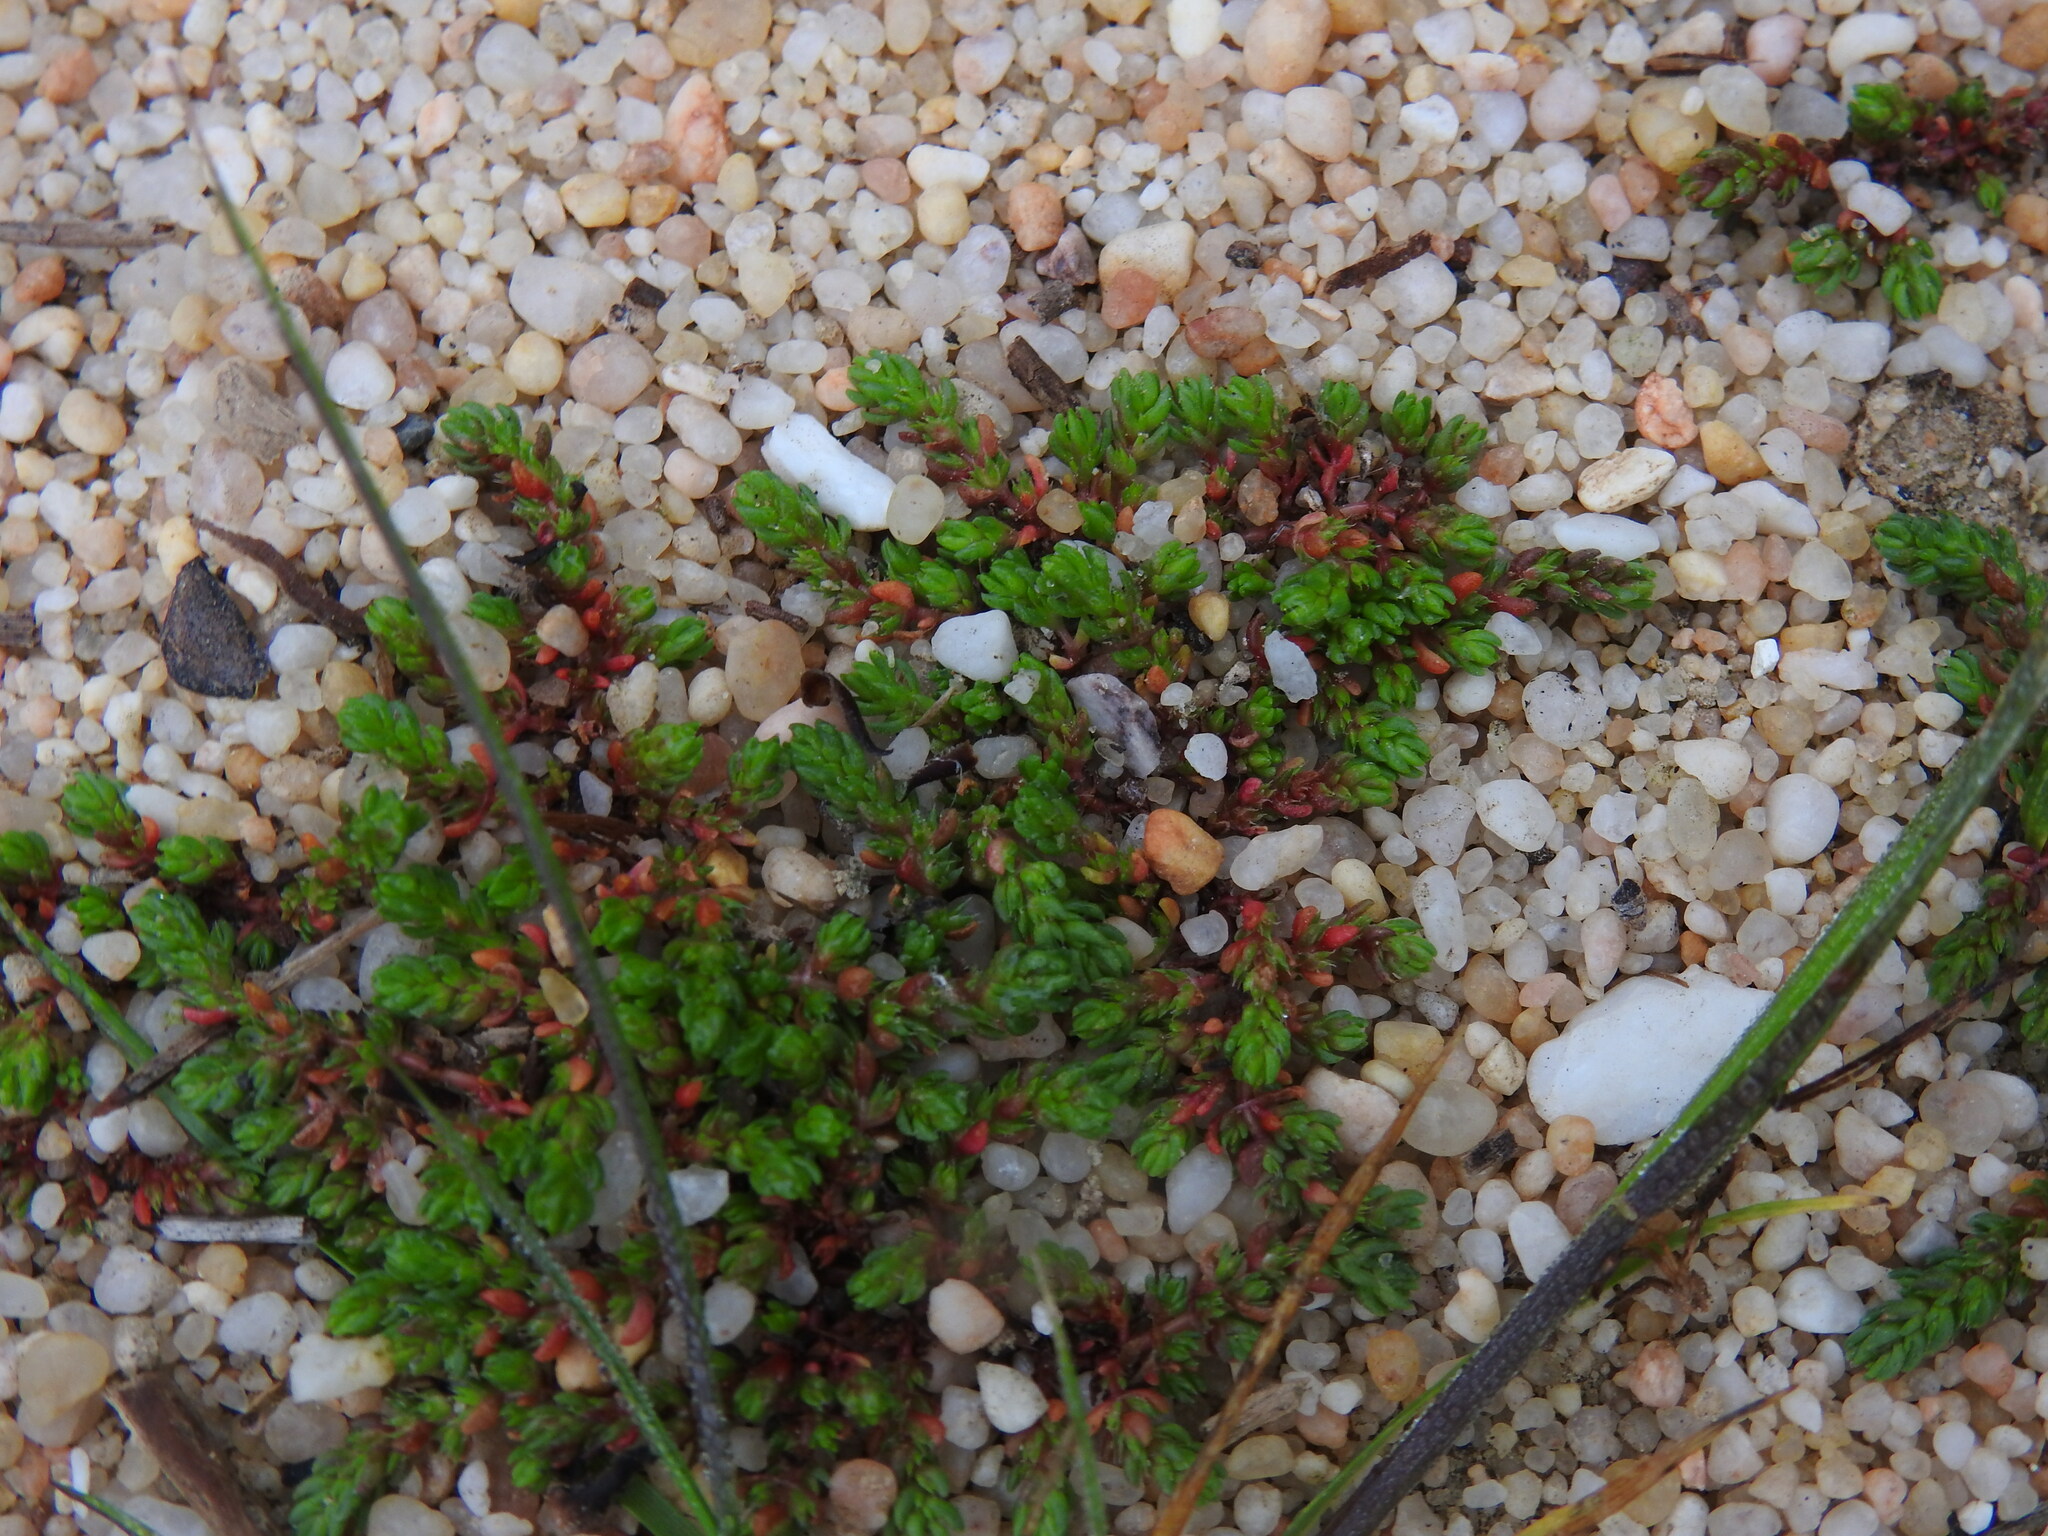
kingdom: Plantae
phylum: Tracheophyta
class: Magnoliopsida
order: Saxifragales
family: Crassulaceae
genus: Crassula
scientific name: Crassula tillaea
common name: Mossy stonecrop
